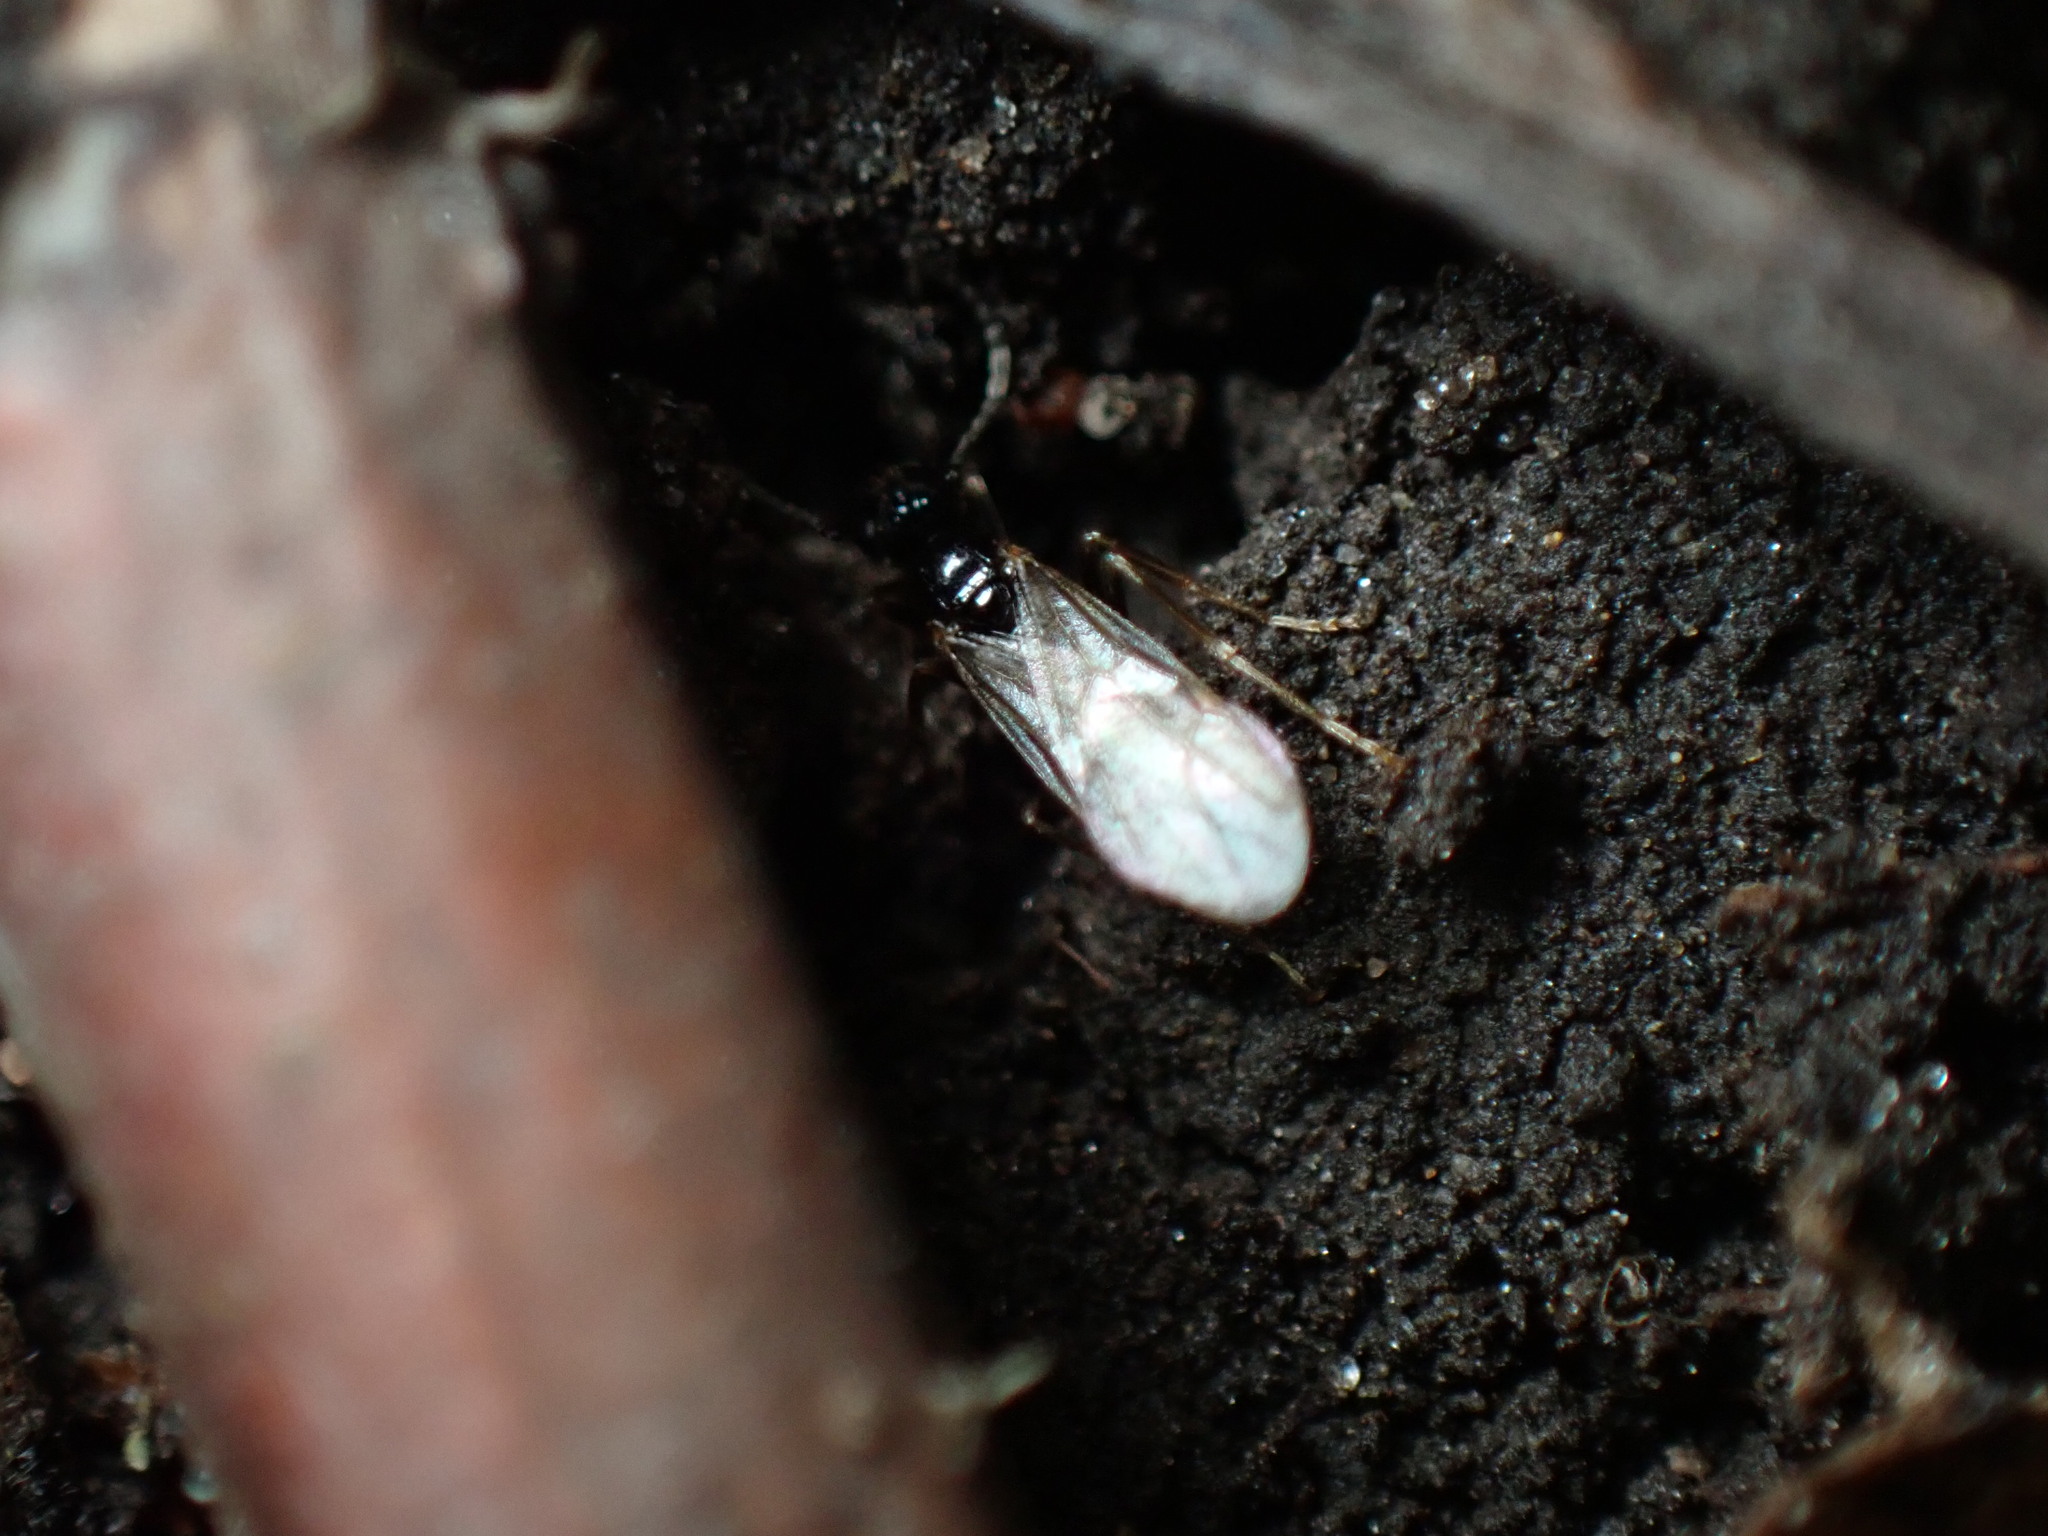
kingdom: Animalia
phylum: Arthropoda
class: Insecta
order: Hymenoptera
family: Formicidae
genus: Prenolepis
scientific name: Prenolepis imparis
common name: Small honey ant
